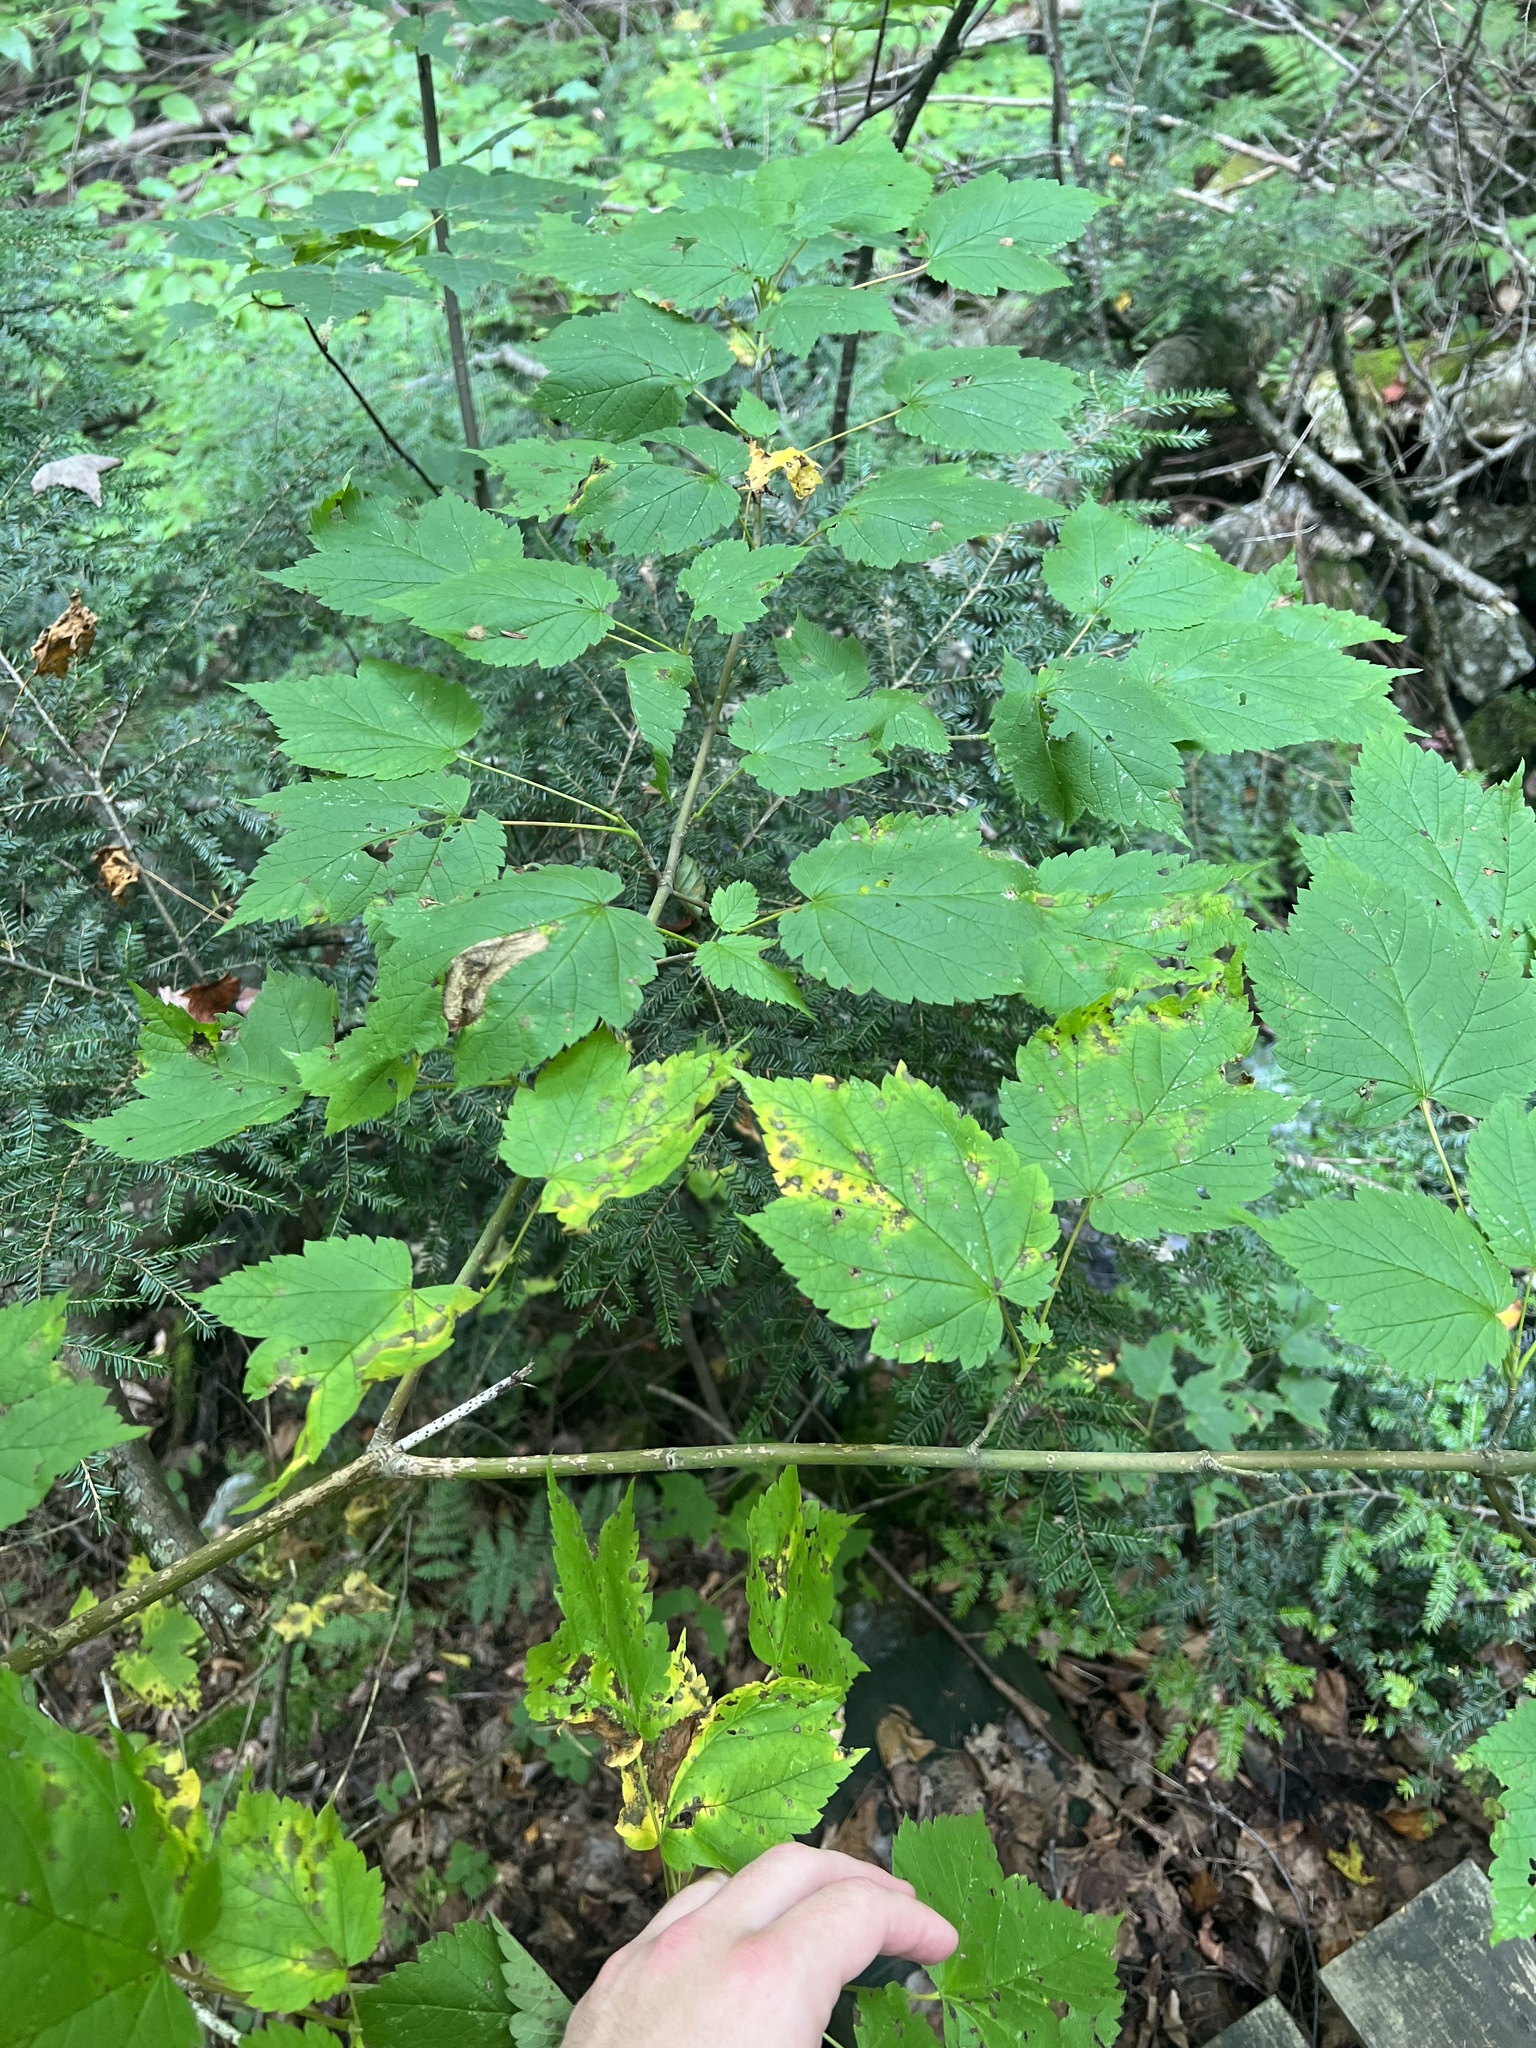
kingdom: Plantae
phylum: Tracheophyta
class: Magnoliopsida
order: Sapindales
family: Sapindaceae
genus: Acer
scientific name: Acer spicatum
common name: Mountain maple
